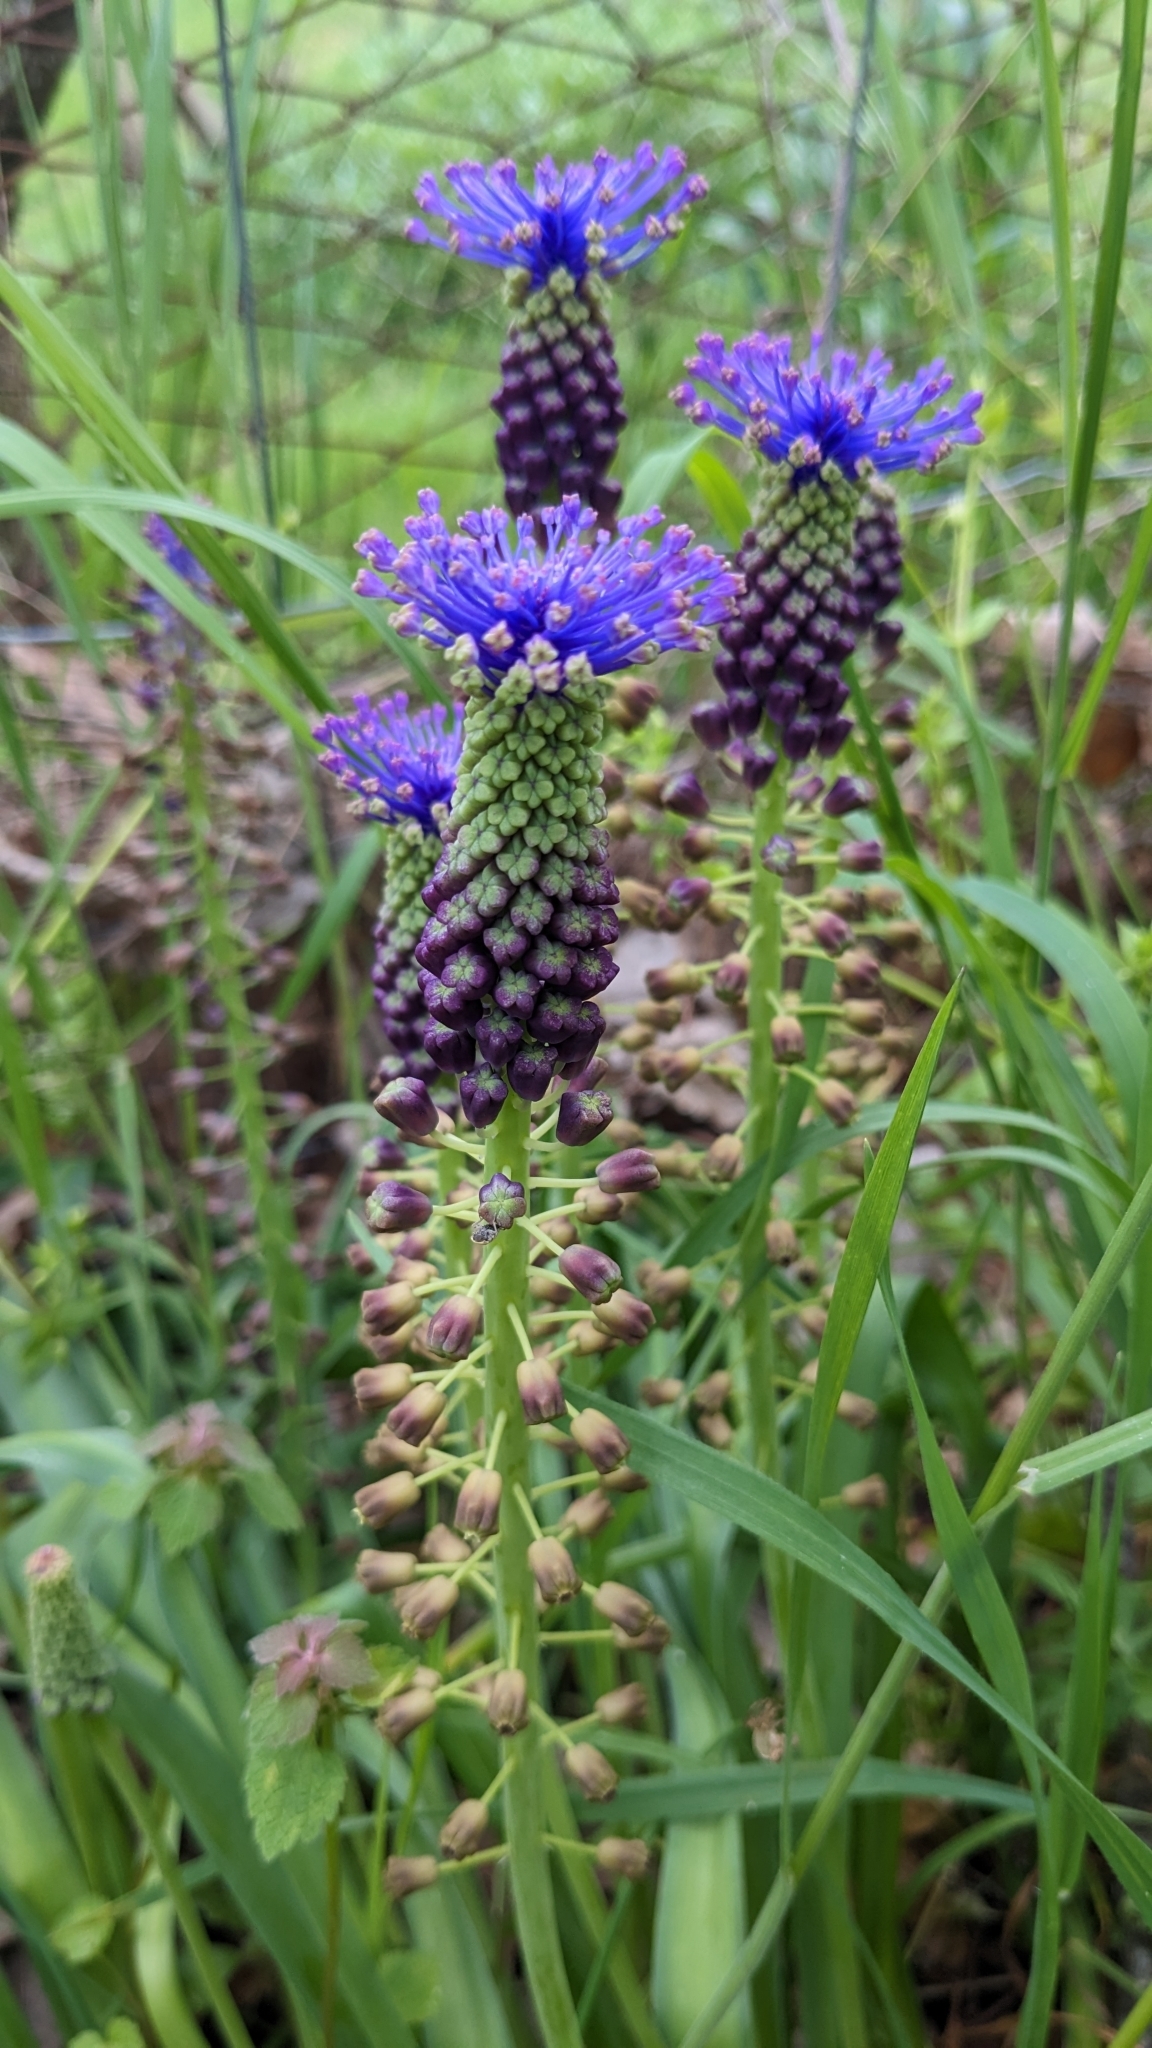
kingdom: Plantae
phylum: Tracheophyta
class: Liliopsida
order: Asparagales
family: Asparagaceae
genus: Muscari
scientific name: Muscari comosum
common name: Tassel hyacinth
